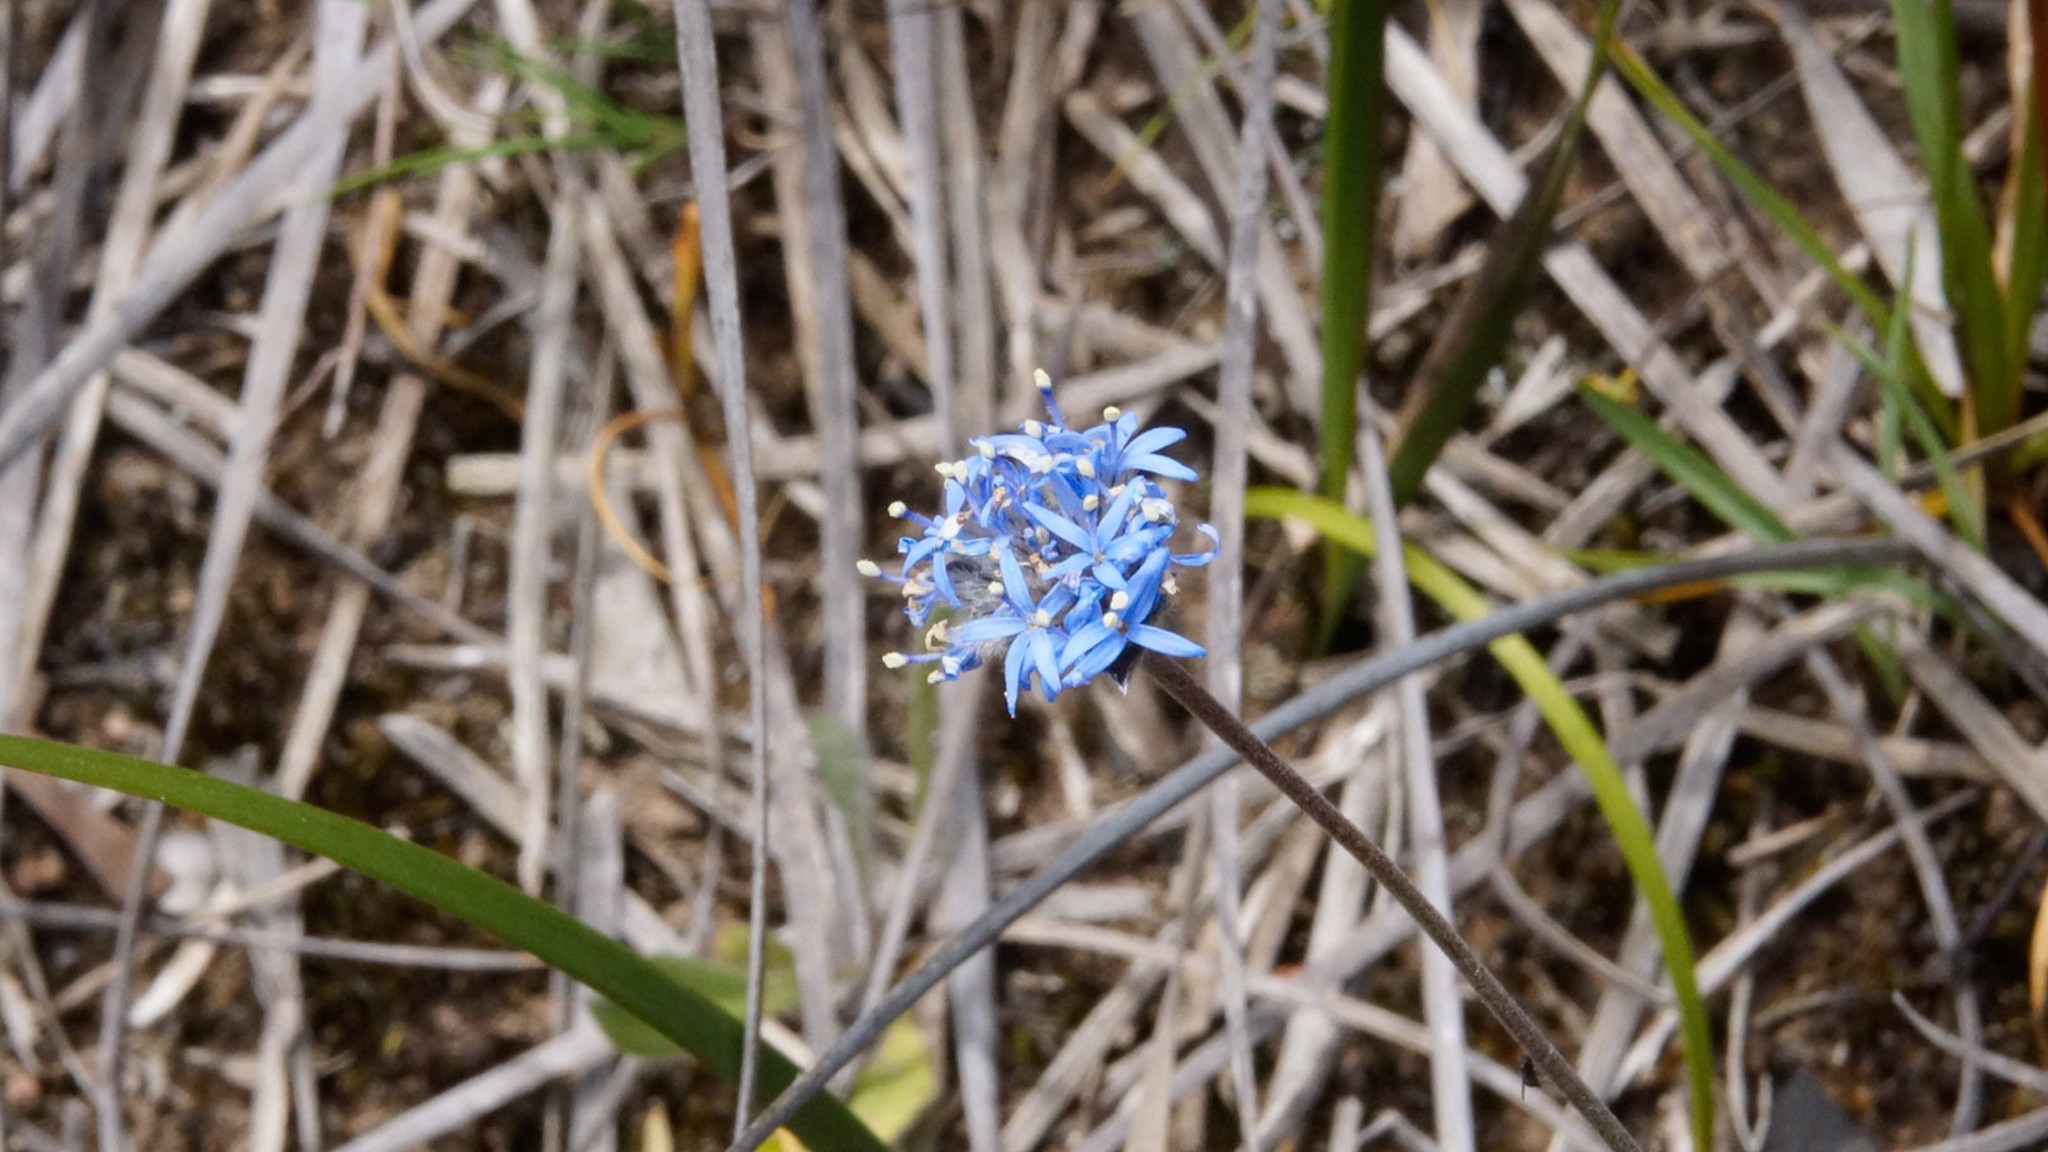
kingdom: Plantae
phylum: Tracheophyta
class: Magnoliopsida
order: Asterales
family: Goodeniaceae
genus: Brunonia
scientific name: Brunonia australis
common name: Blue pincushion
